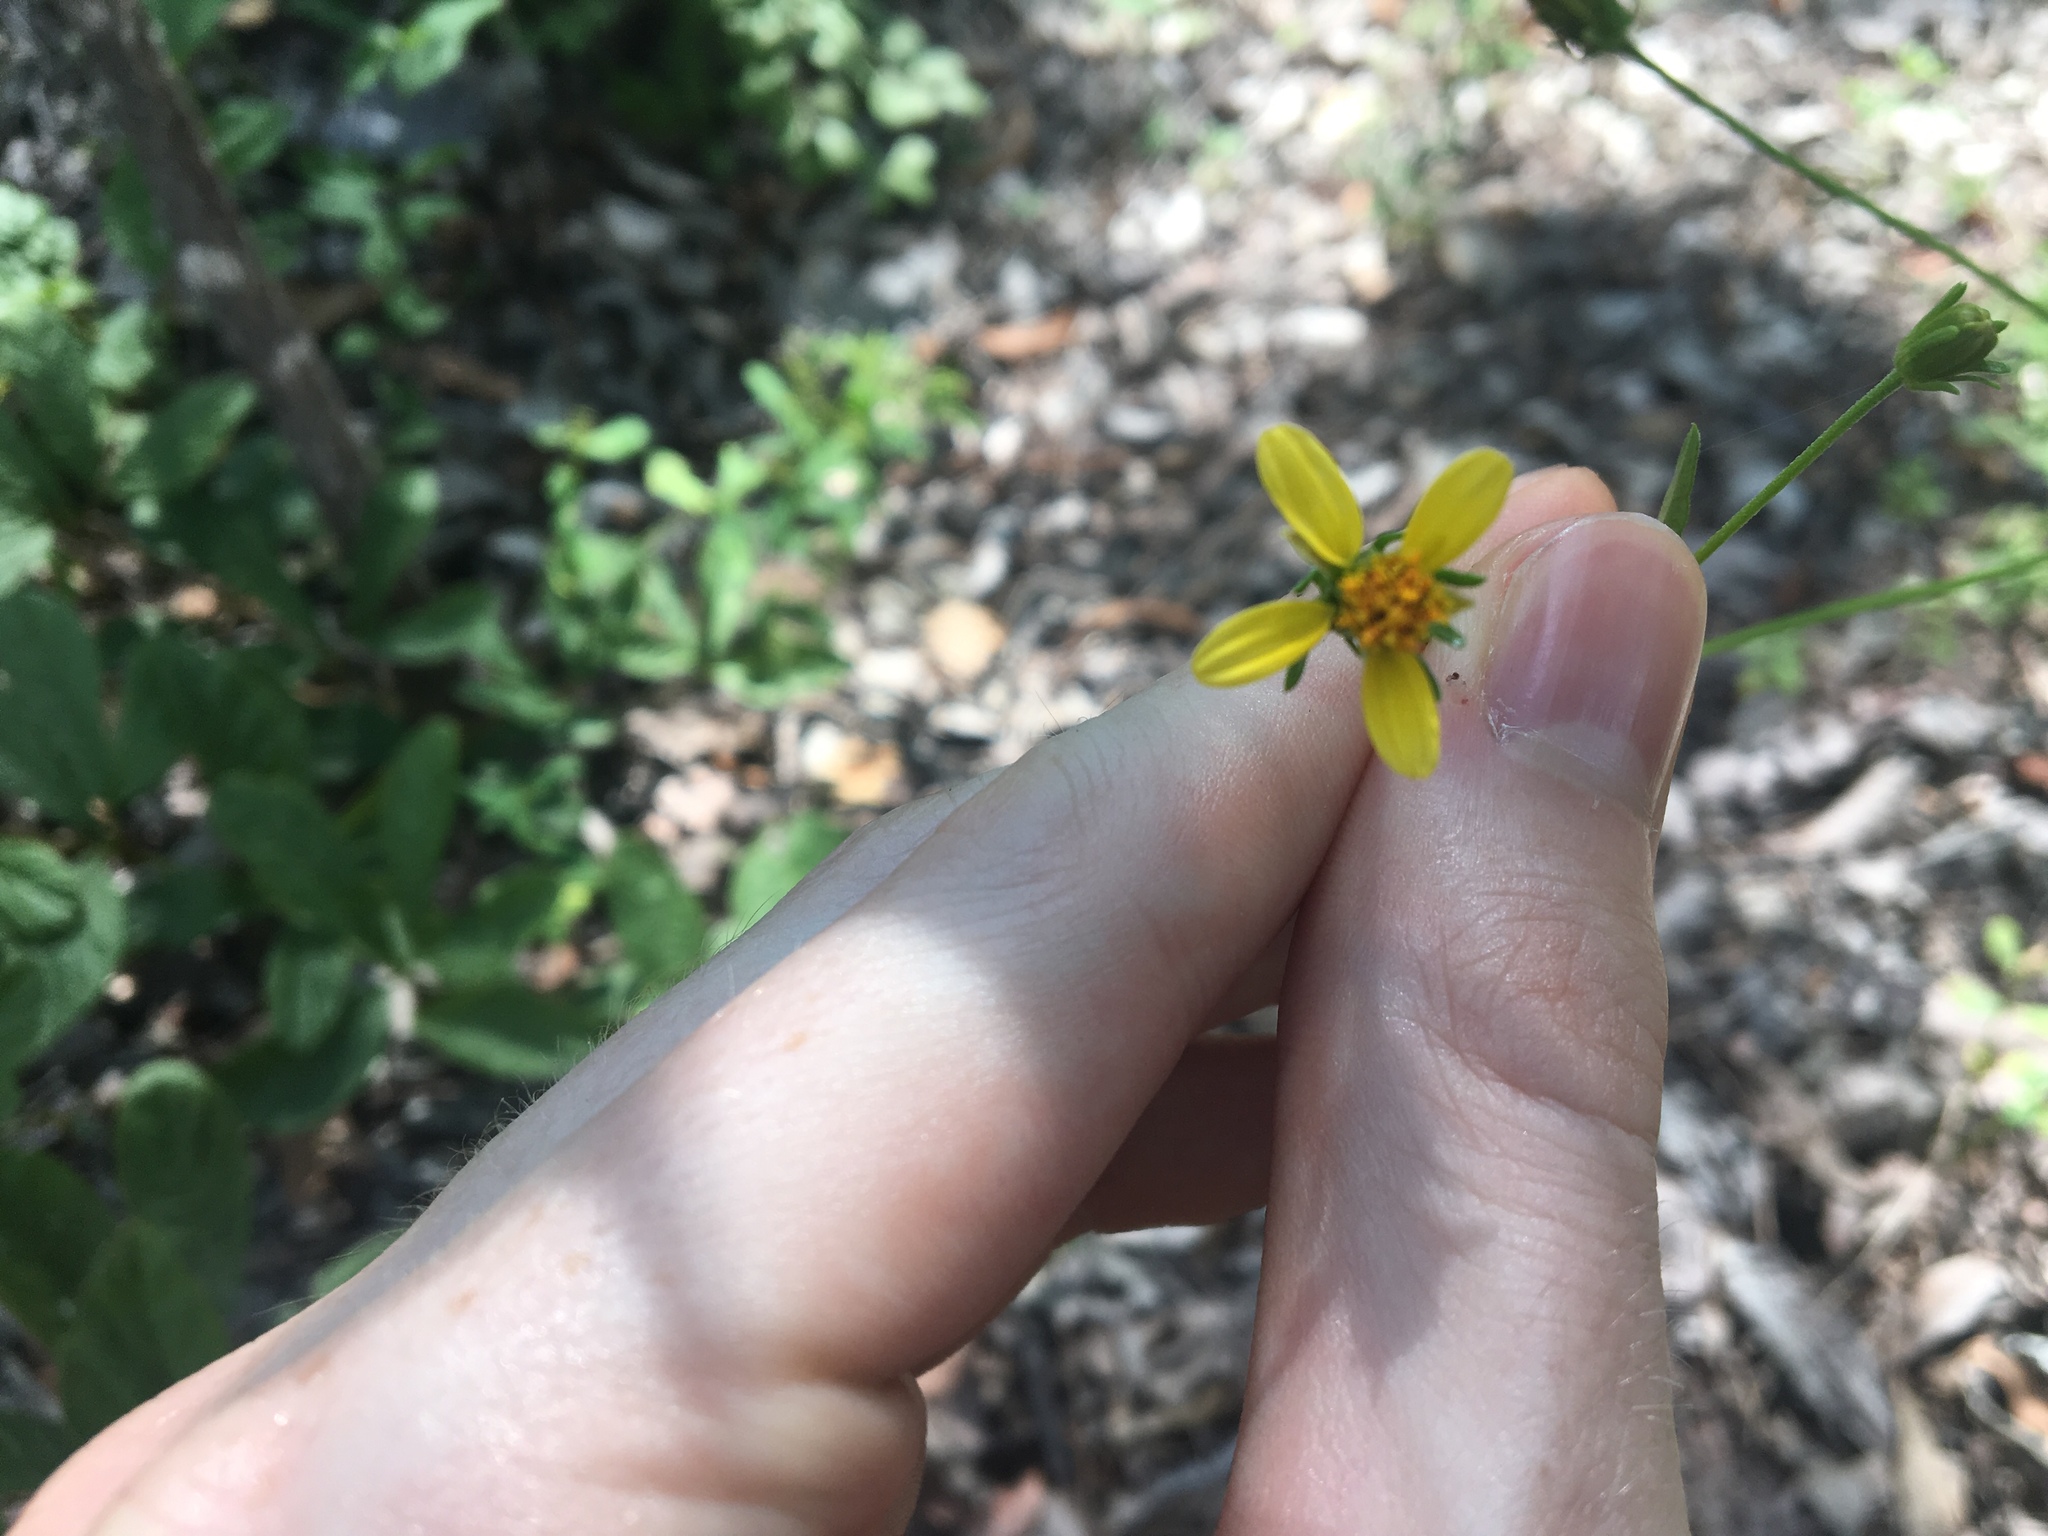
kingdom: Plantae
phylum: Tracheophyta
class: Magnoliopsida
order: Asterales
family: Asteraceae
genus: Bidens
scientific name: Bidens biternata
